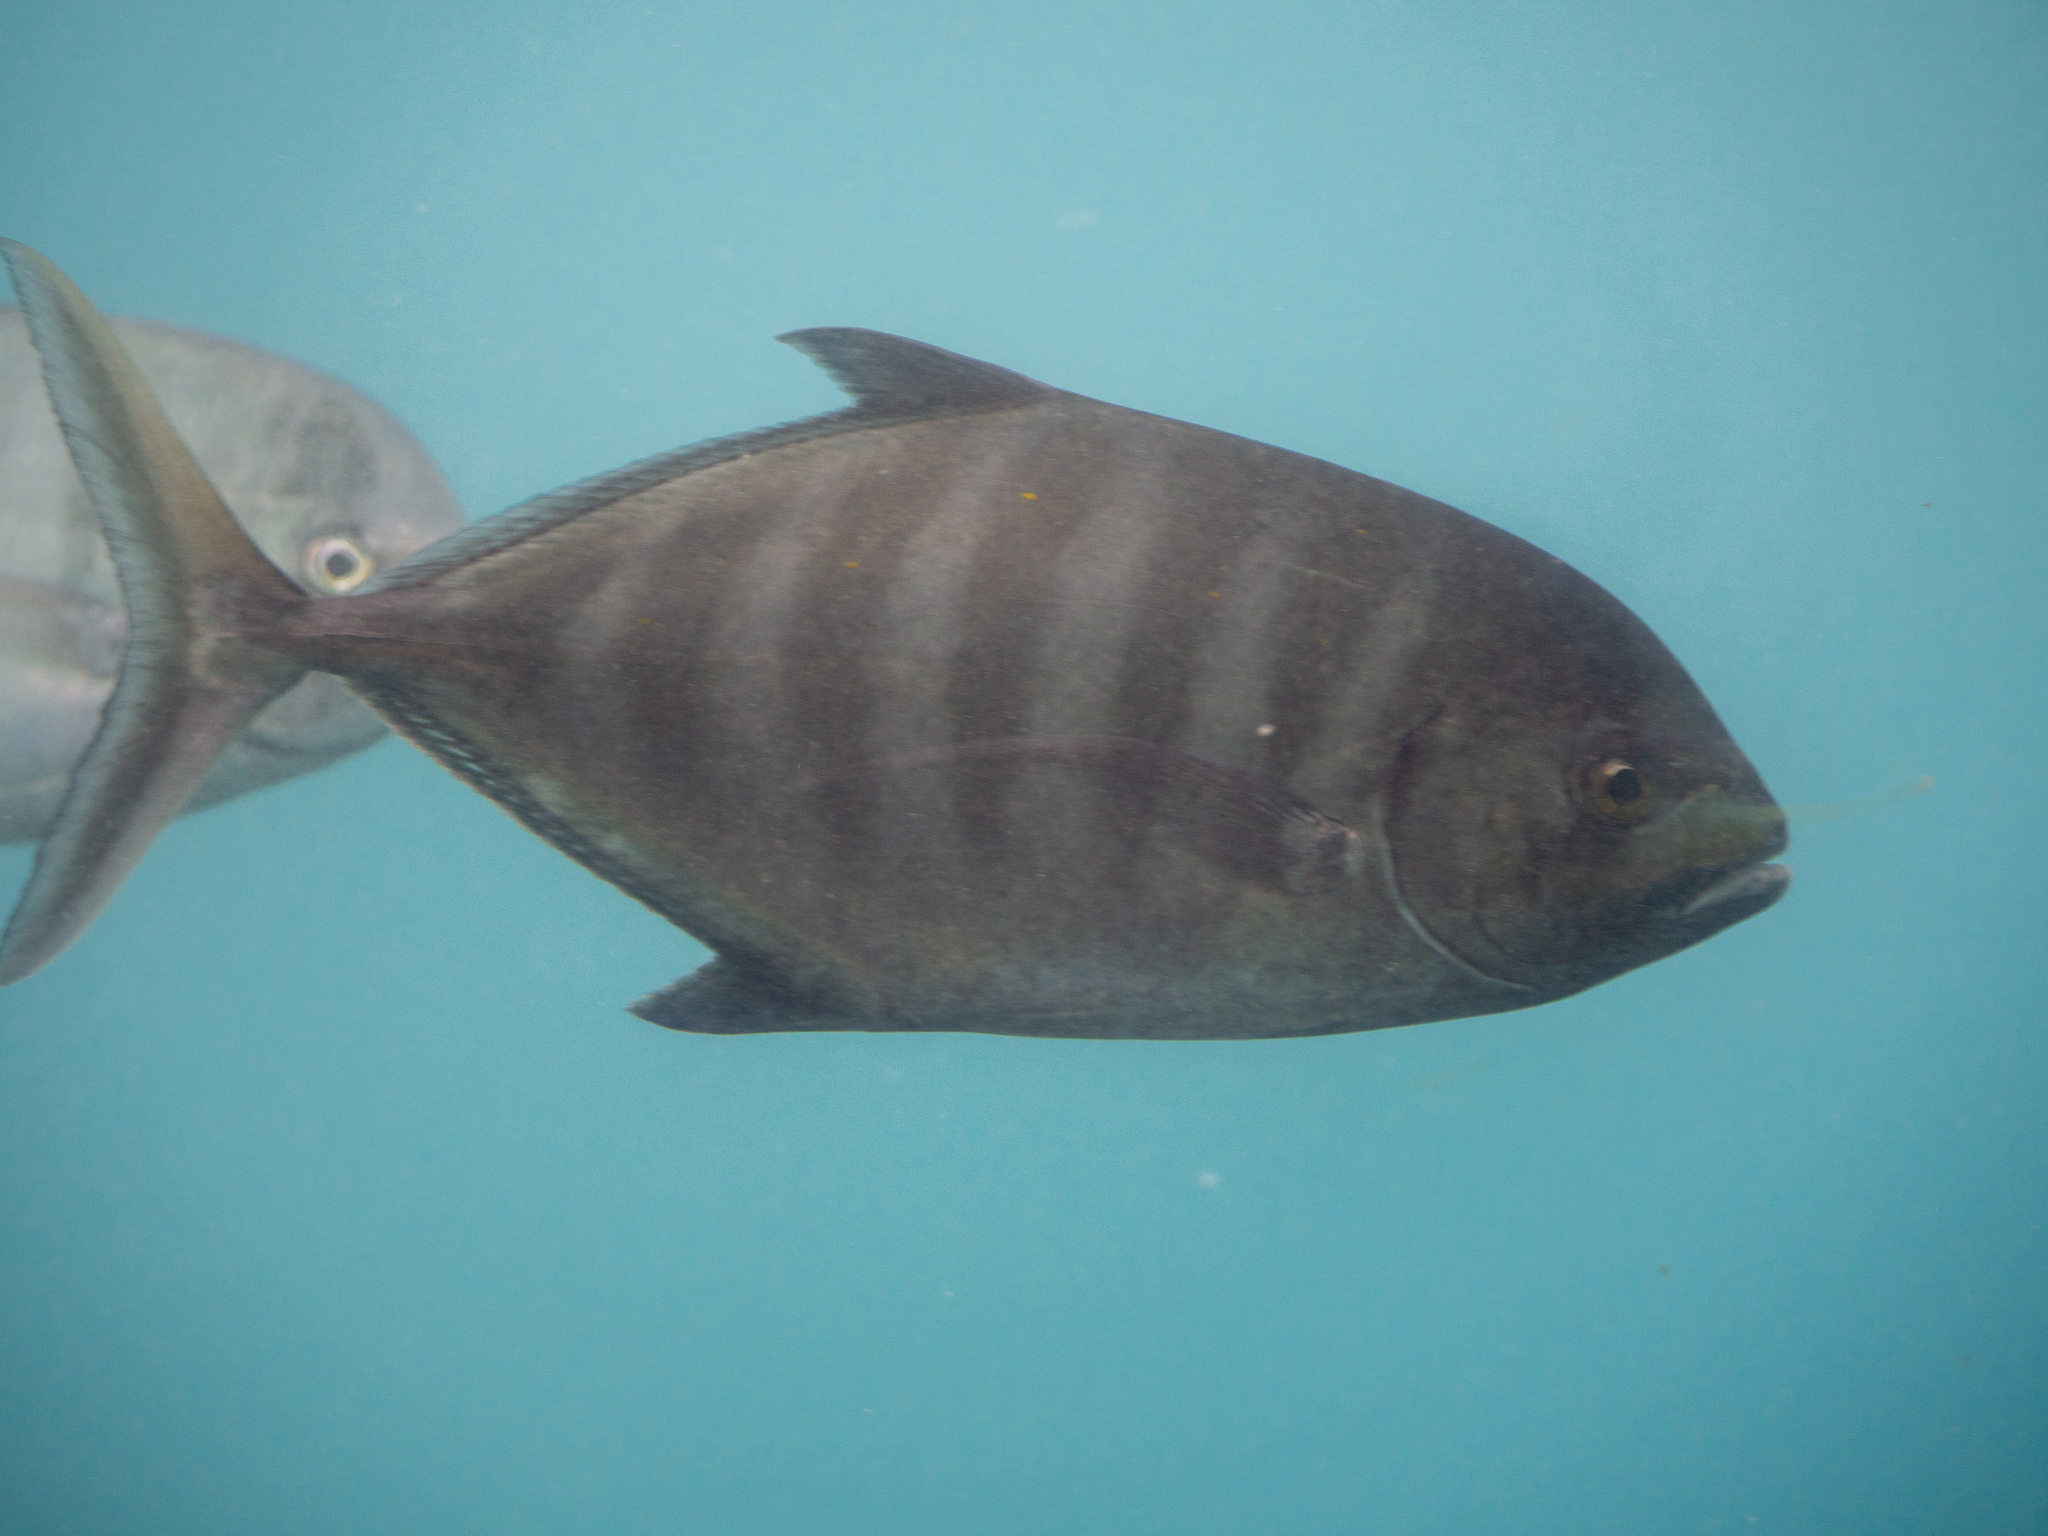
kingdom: Animalia
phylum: Chordata
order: Perciformes
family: Carangidae
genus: Carangoides
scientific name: Carangoides Ferdauia ferdau
